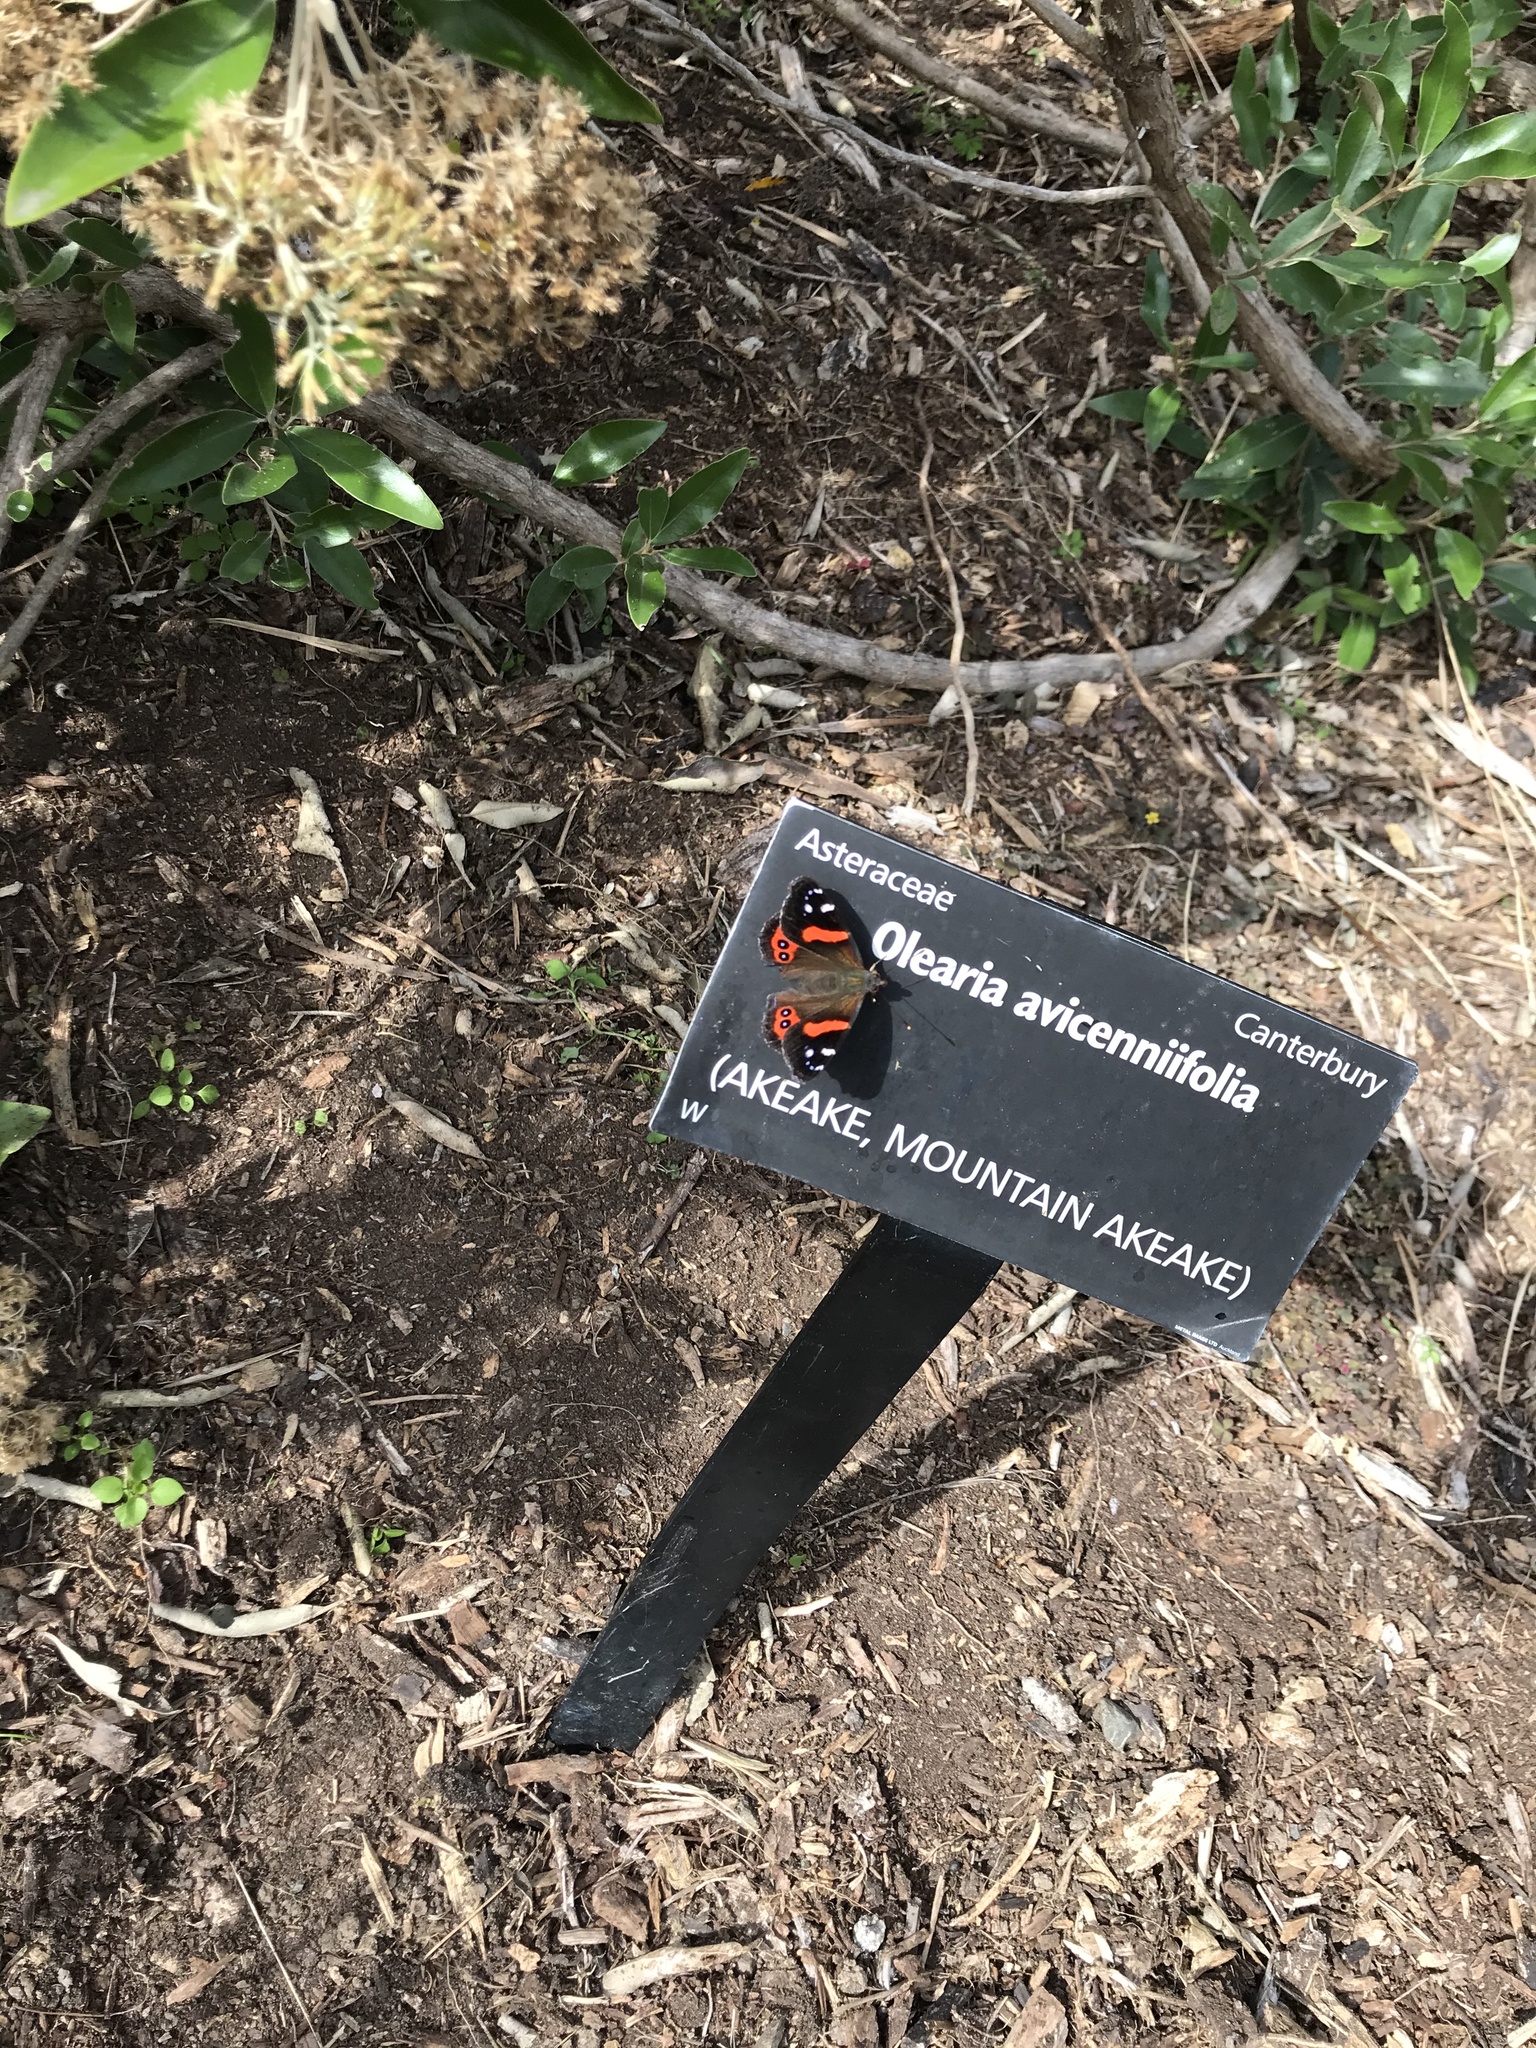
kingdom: Animalia
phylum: Arthropoda
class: Insecta
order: Lepidoptera
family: Nymphalidae
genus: Vanessa
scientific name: Vanessa gonerilla
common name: New zealand red admiral
